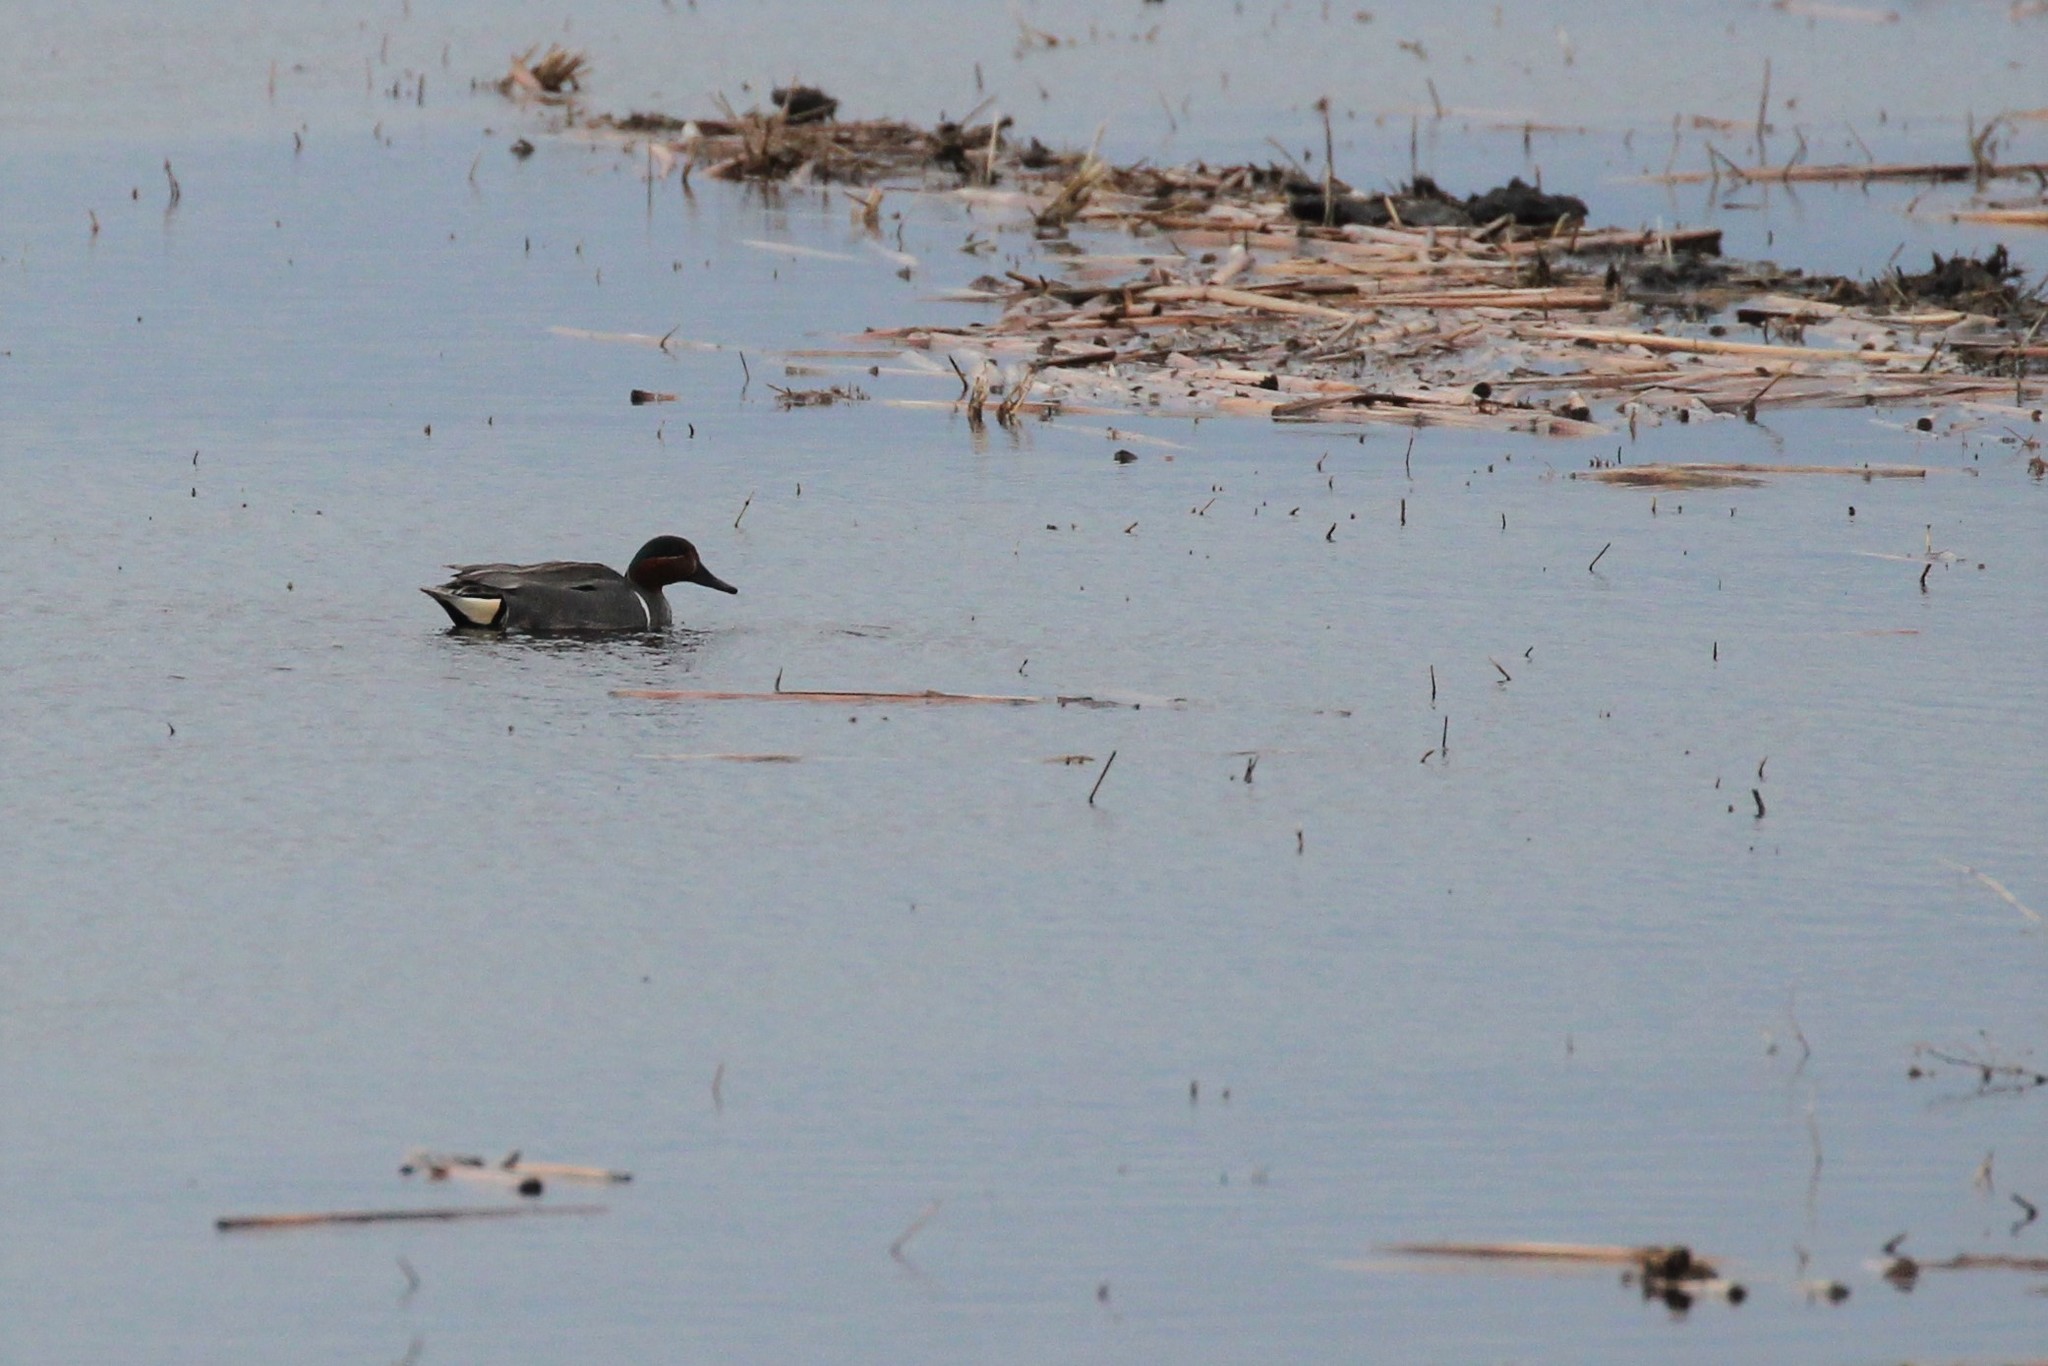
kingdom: Animalia
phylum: Chordata
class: Aves
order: Anseriformes
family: Anatidae
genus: Anas
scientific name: Anas crecca
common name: Eurasian teal
